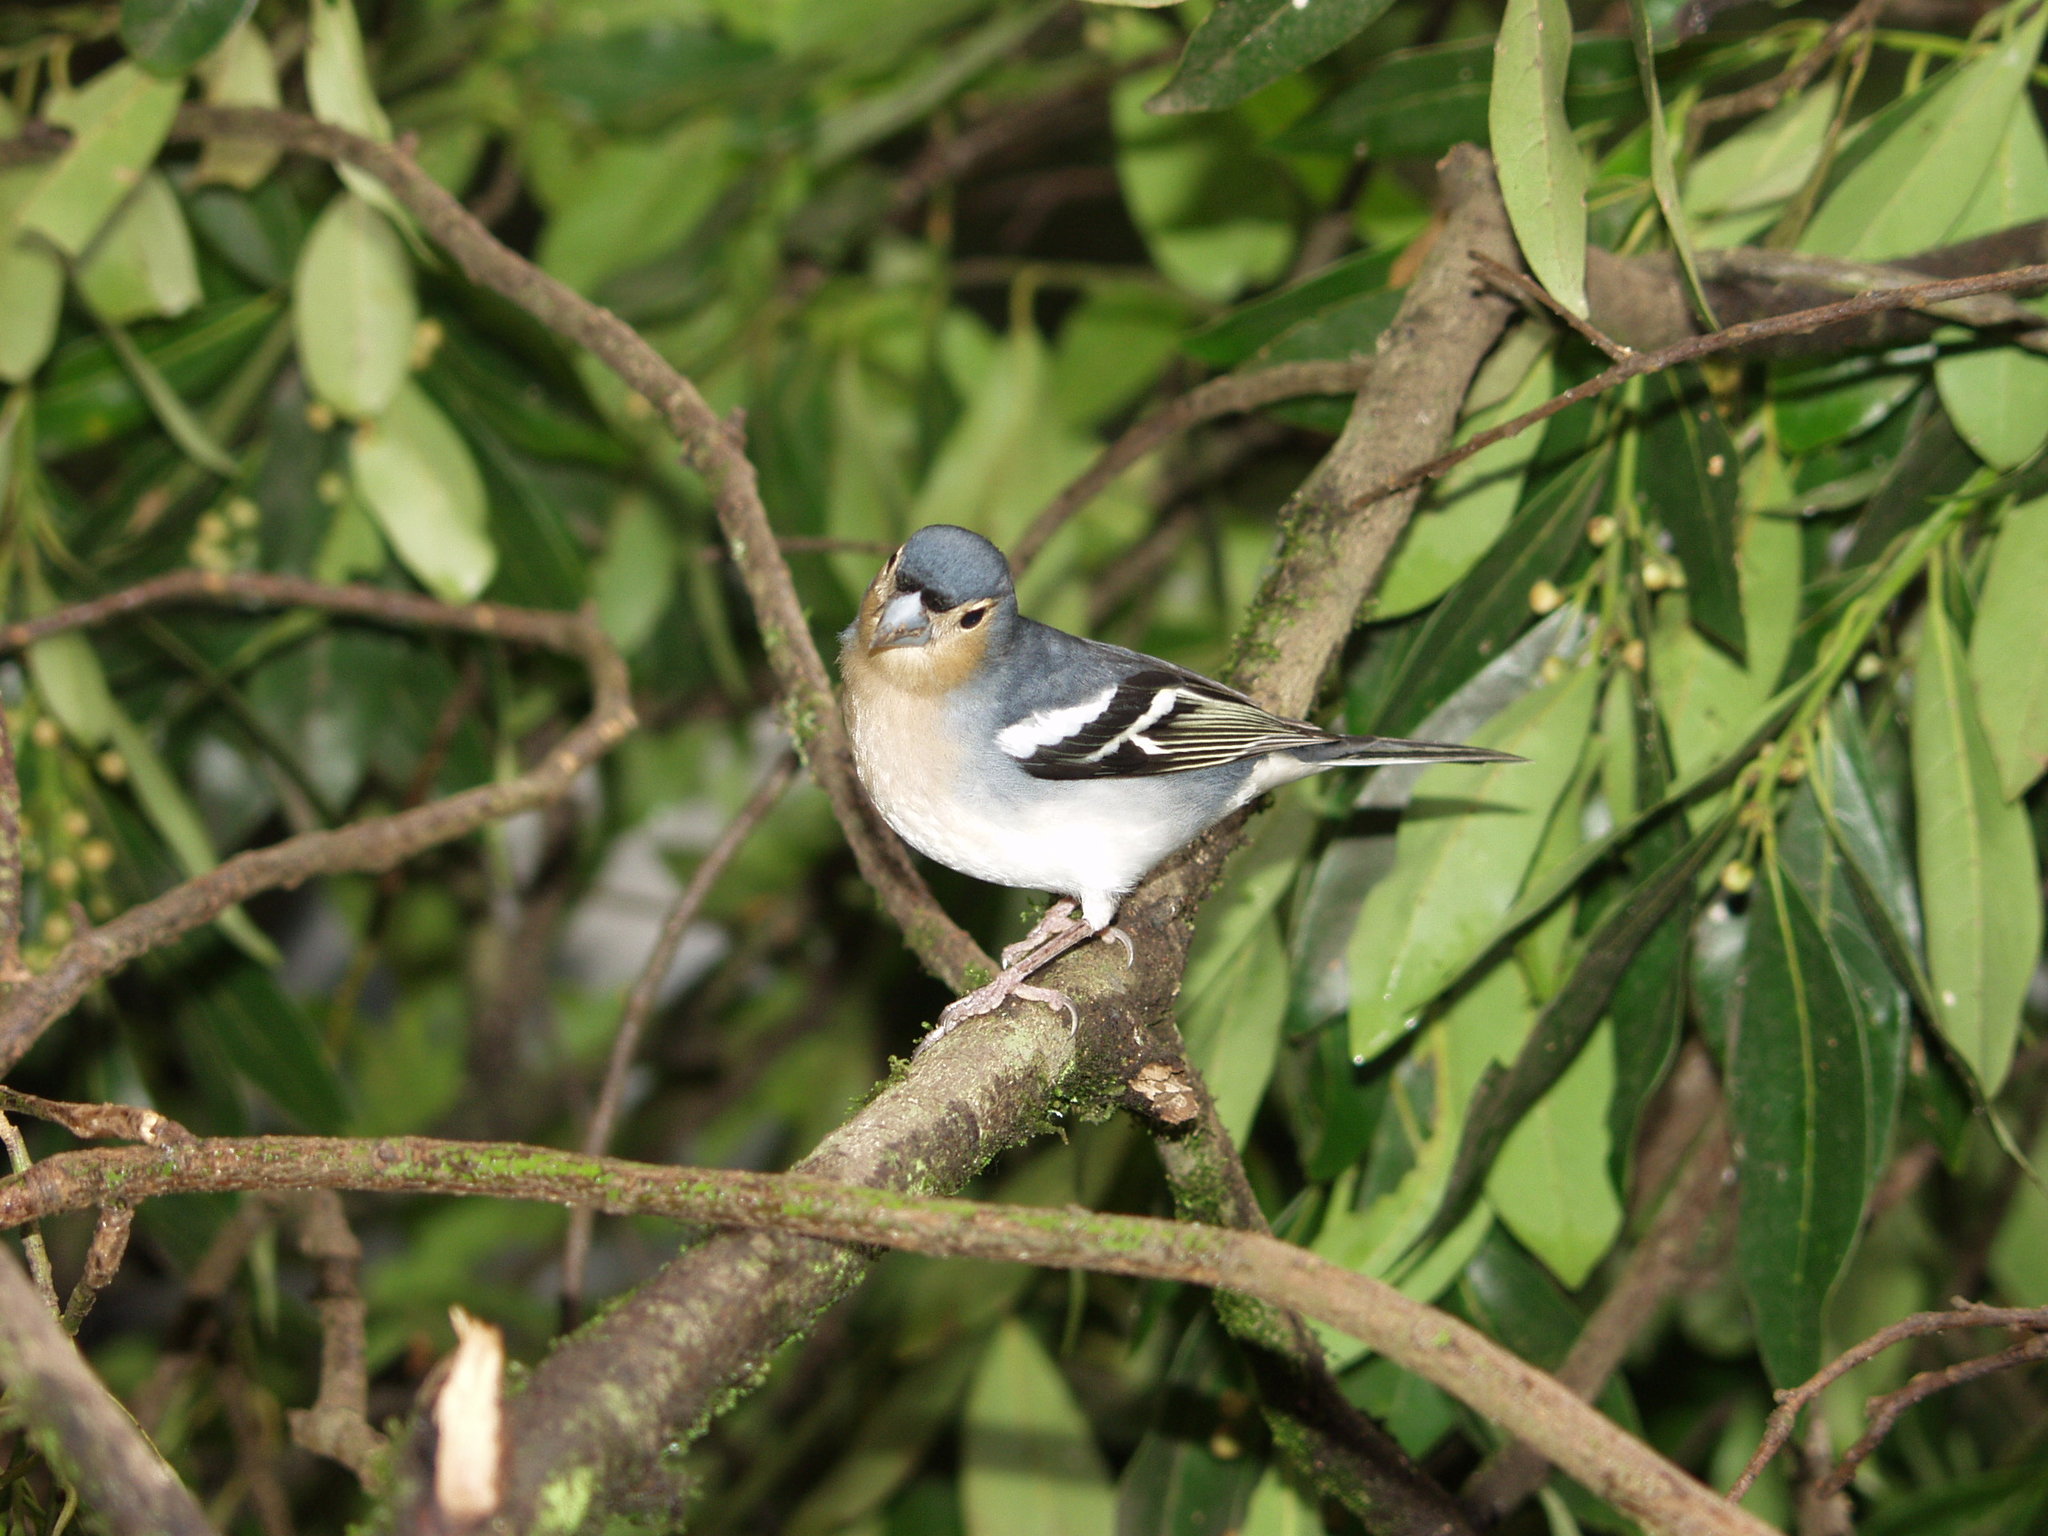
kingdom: Animalia
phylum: Chordata
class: Aves
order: Passeriformes
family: Fringillidae
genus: Fringilla
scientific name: Fringilla canariensis
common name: Canary islands chaffinch
